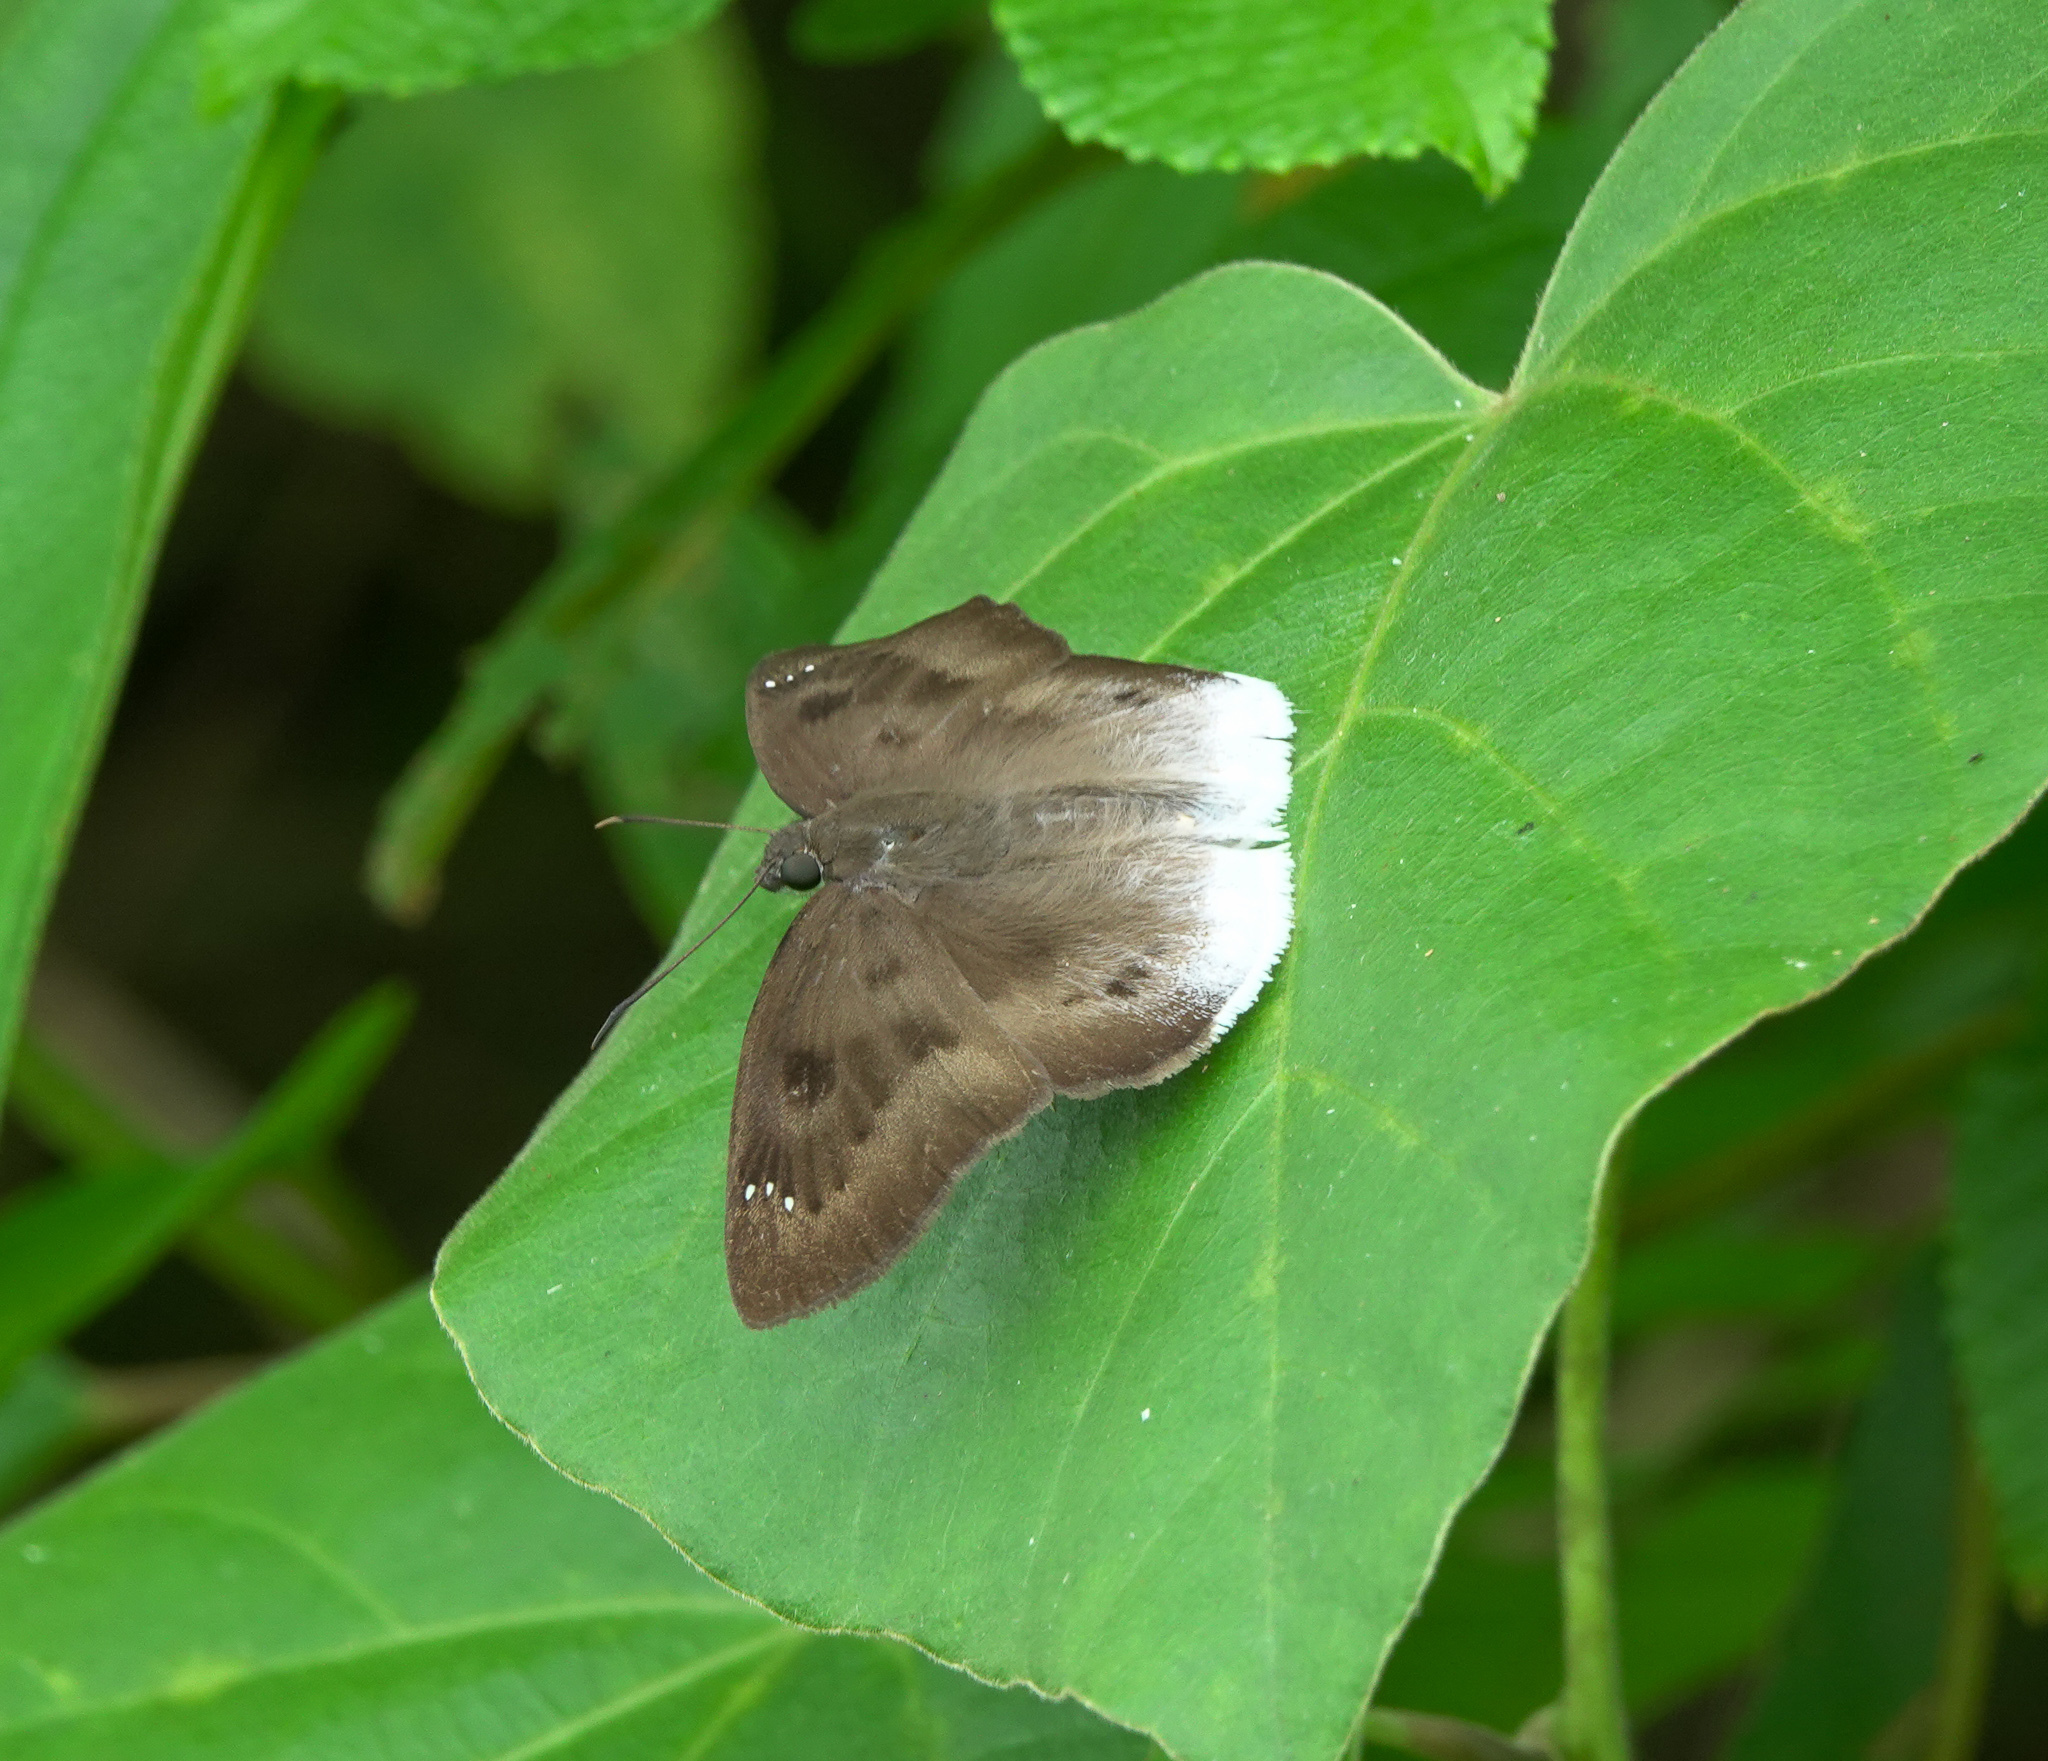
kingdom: Animalia
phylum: Arthropoda
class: Insecta
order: Lepidoptera
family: Hesperiidae
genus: Tagiades
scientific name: Tagiades gana
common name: Suffused snow flat
